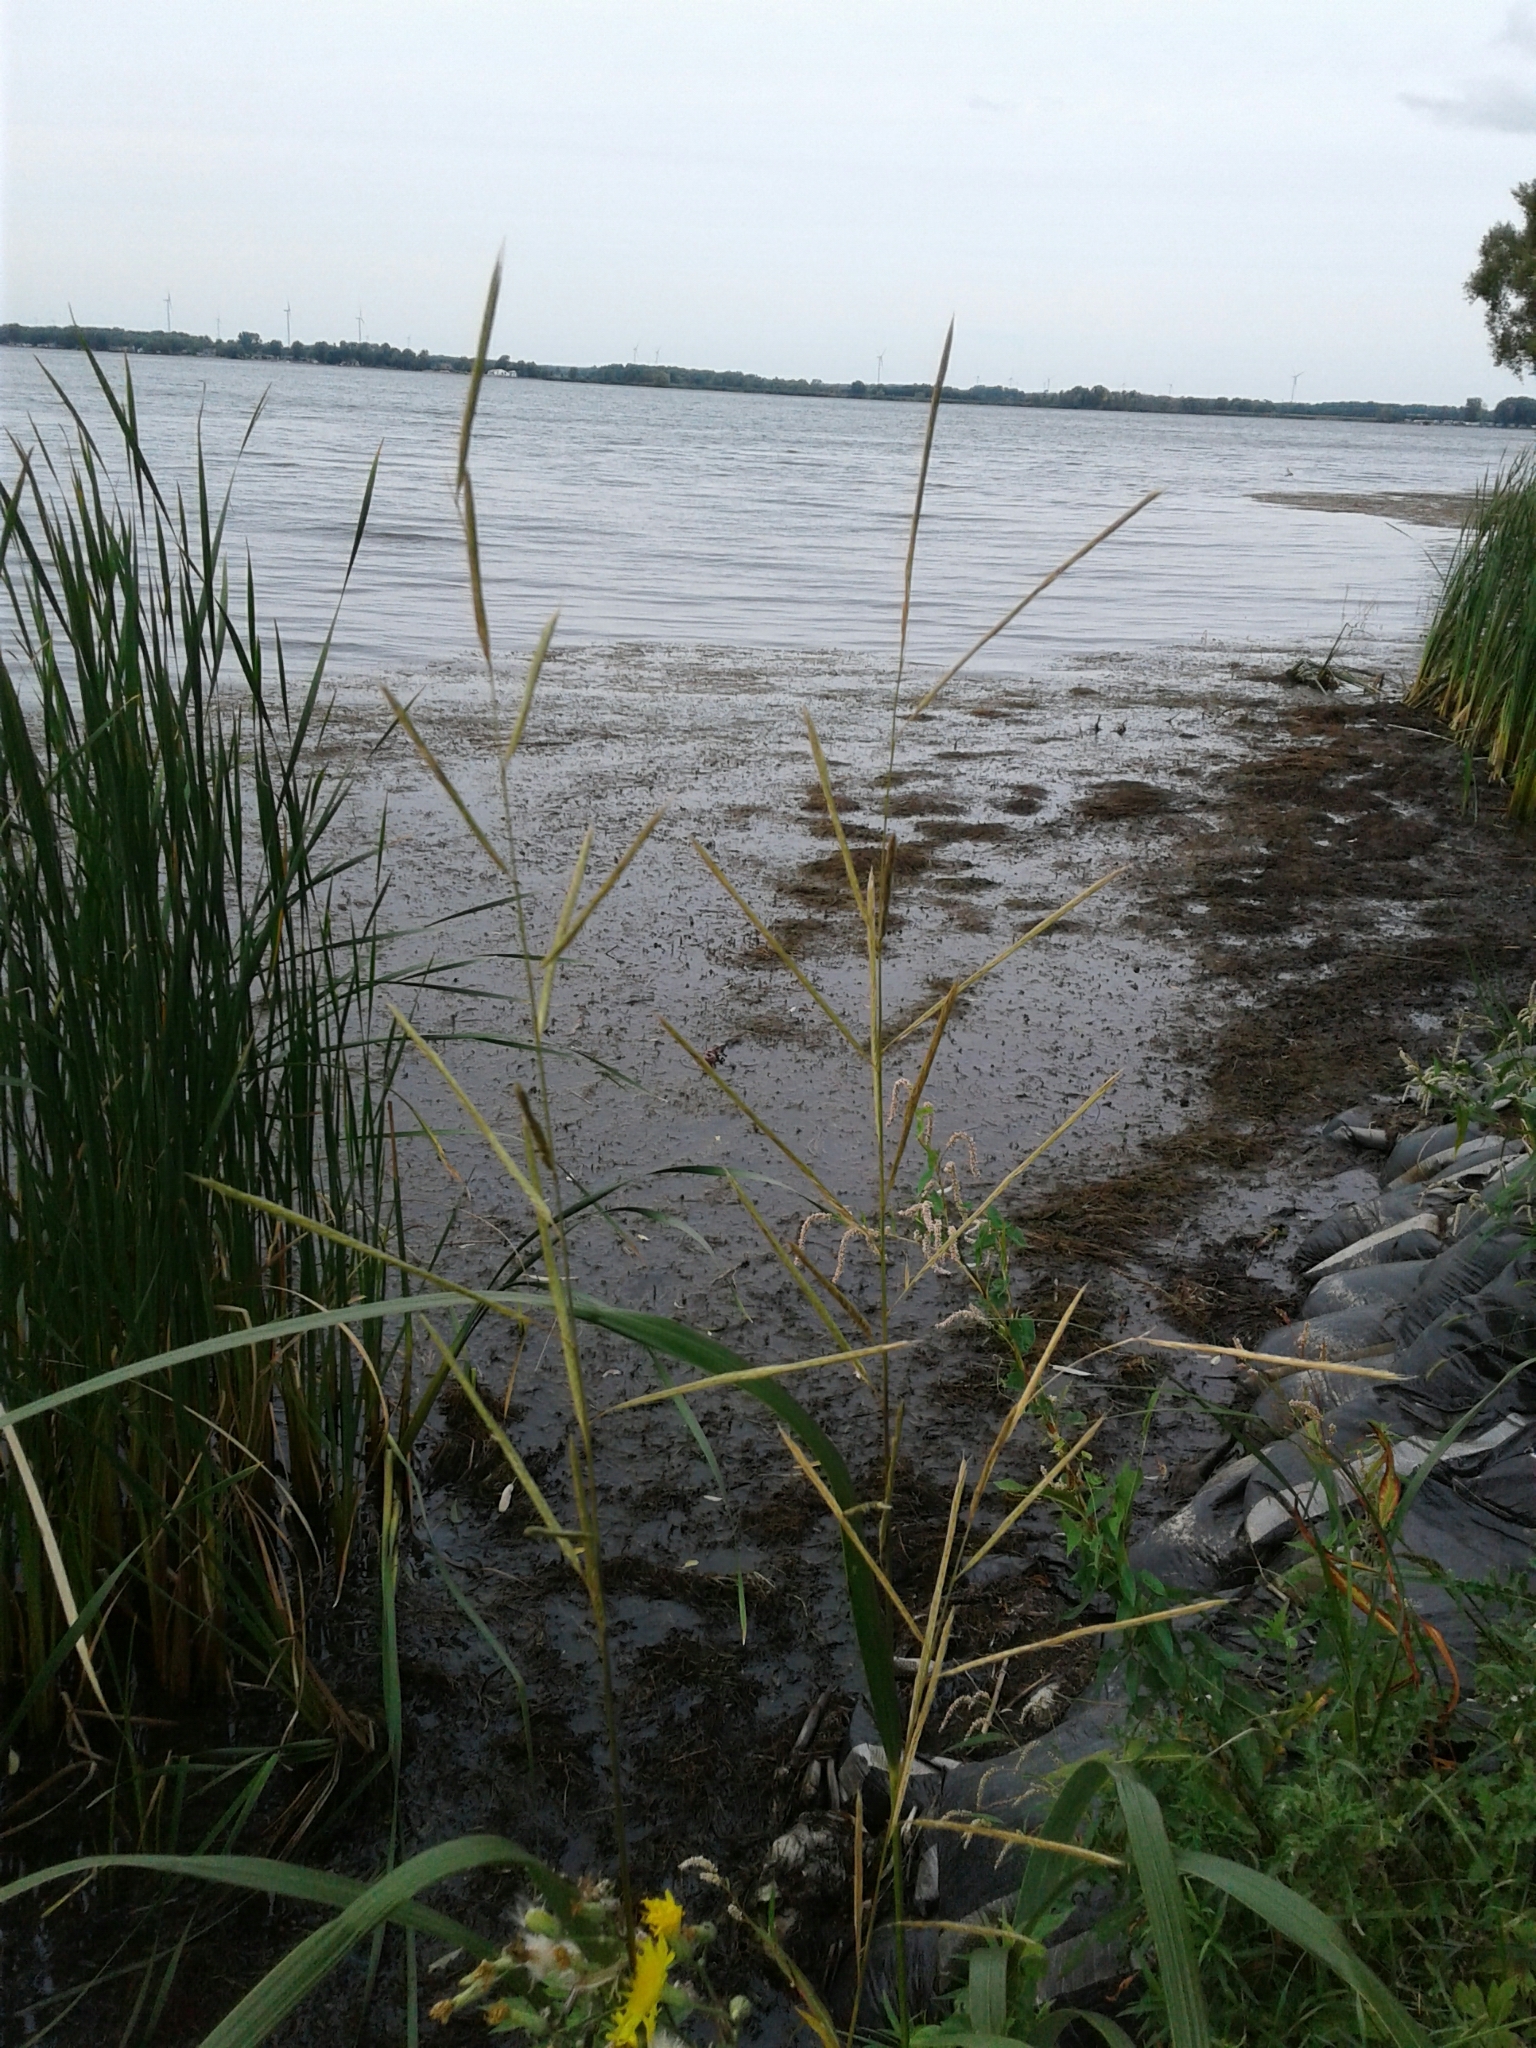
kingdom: Plantae
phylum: Tracheophyta
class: Liliopsida
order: Poales
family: Poaceae
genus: Sporobolus
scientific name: Sporobolus michauxianus
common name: Freshwater cordgrass
